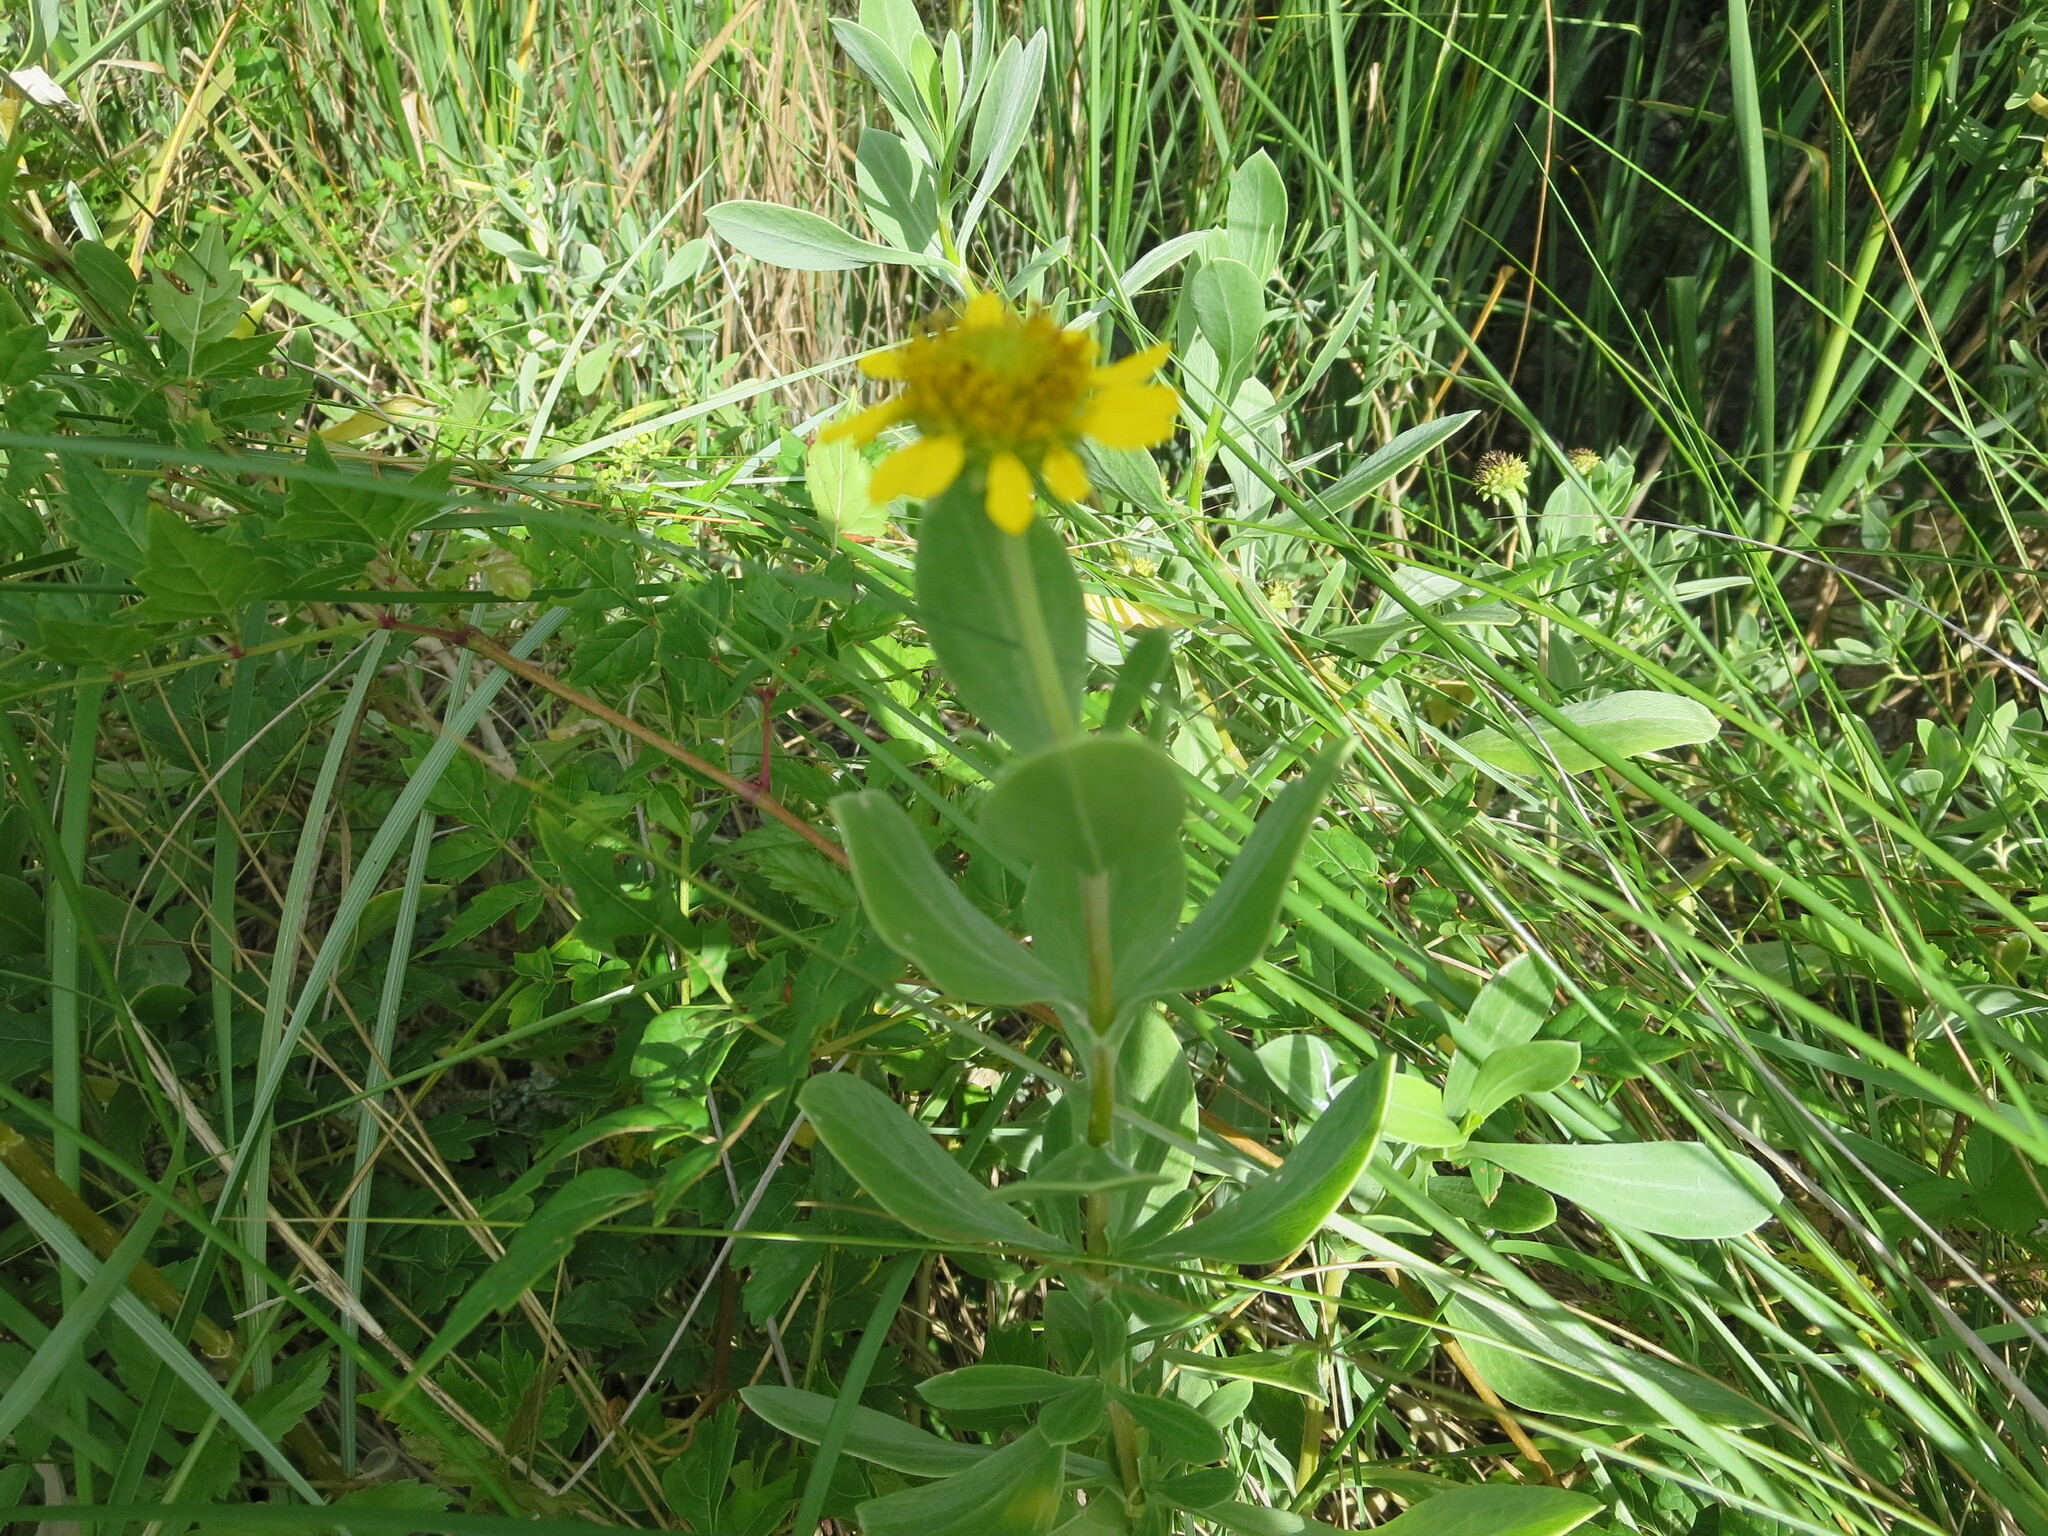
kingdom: Plantae
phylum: Tracheophyta
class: Magnoliopsida
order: Asterales
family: Asteraceae
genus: Borrichia
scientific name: Borrichia frutescens
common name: Sea oxeye
